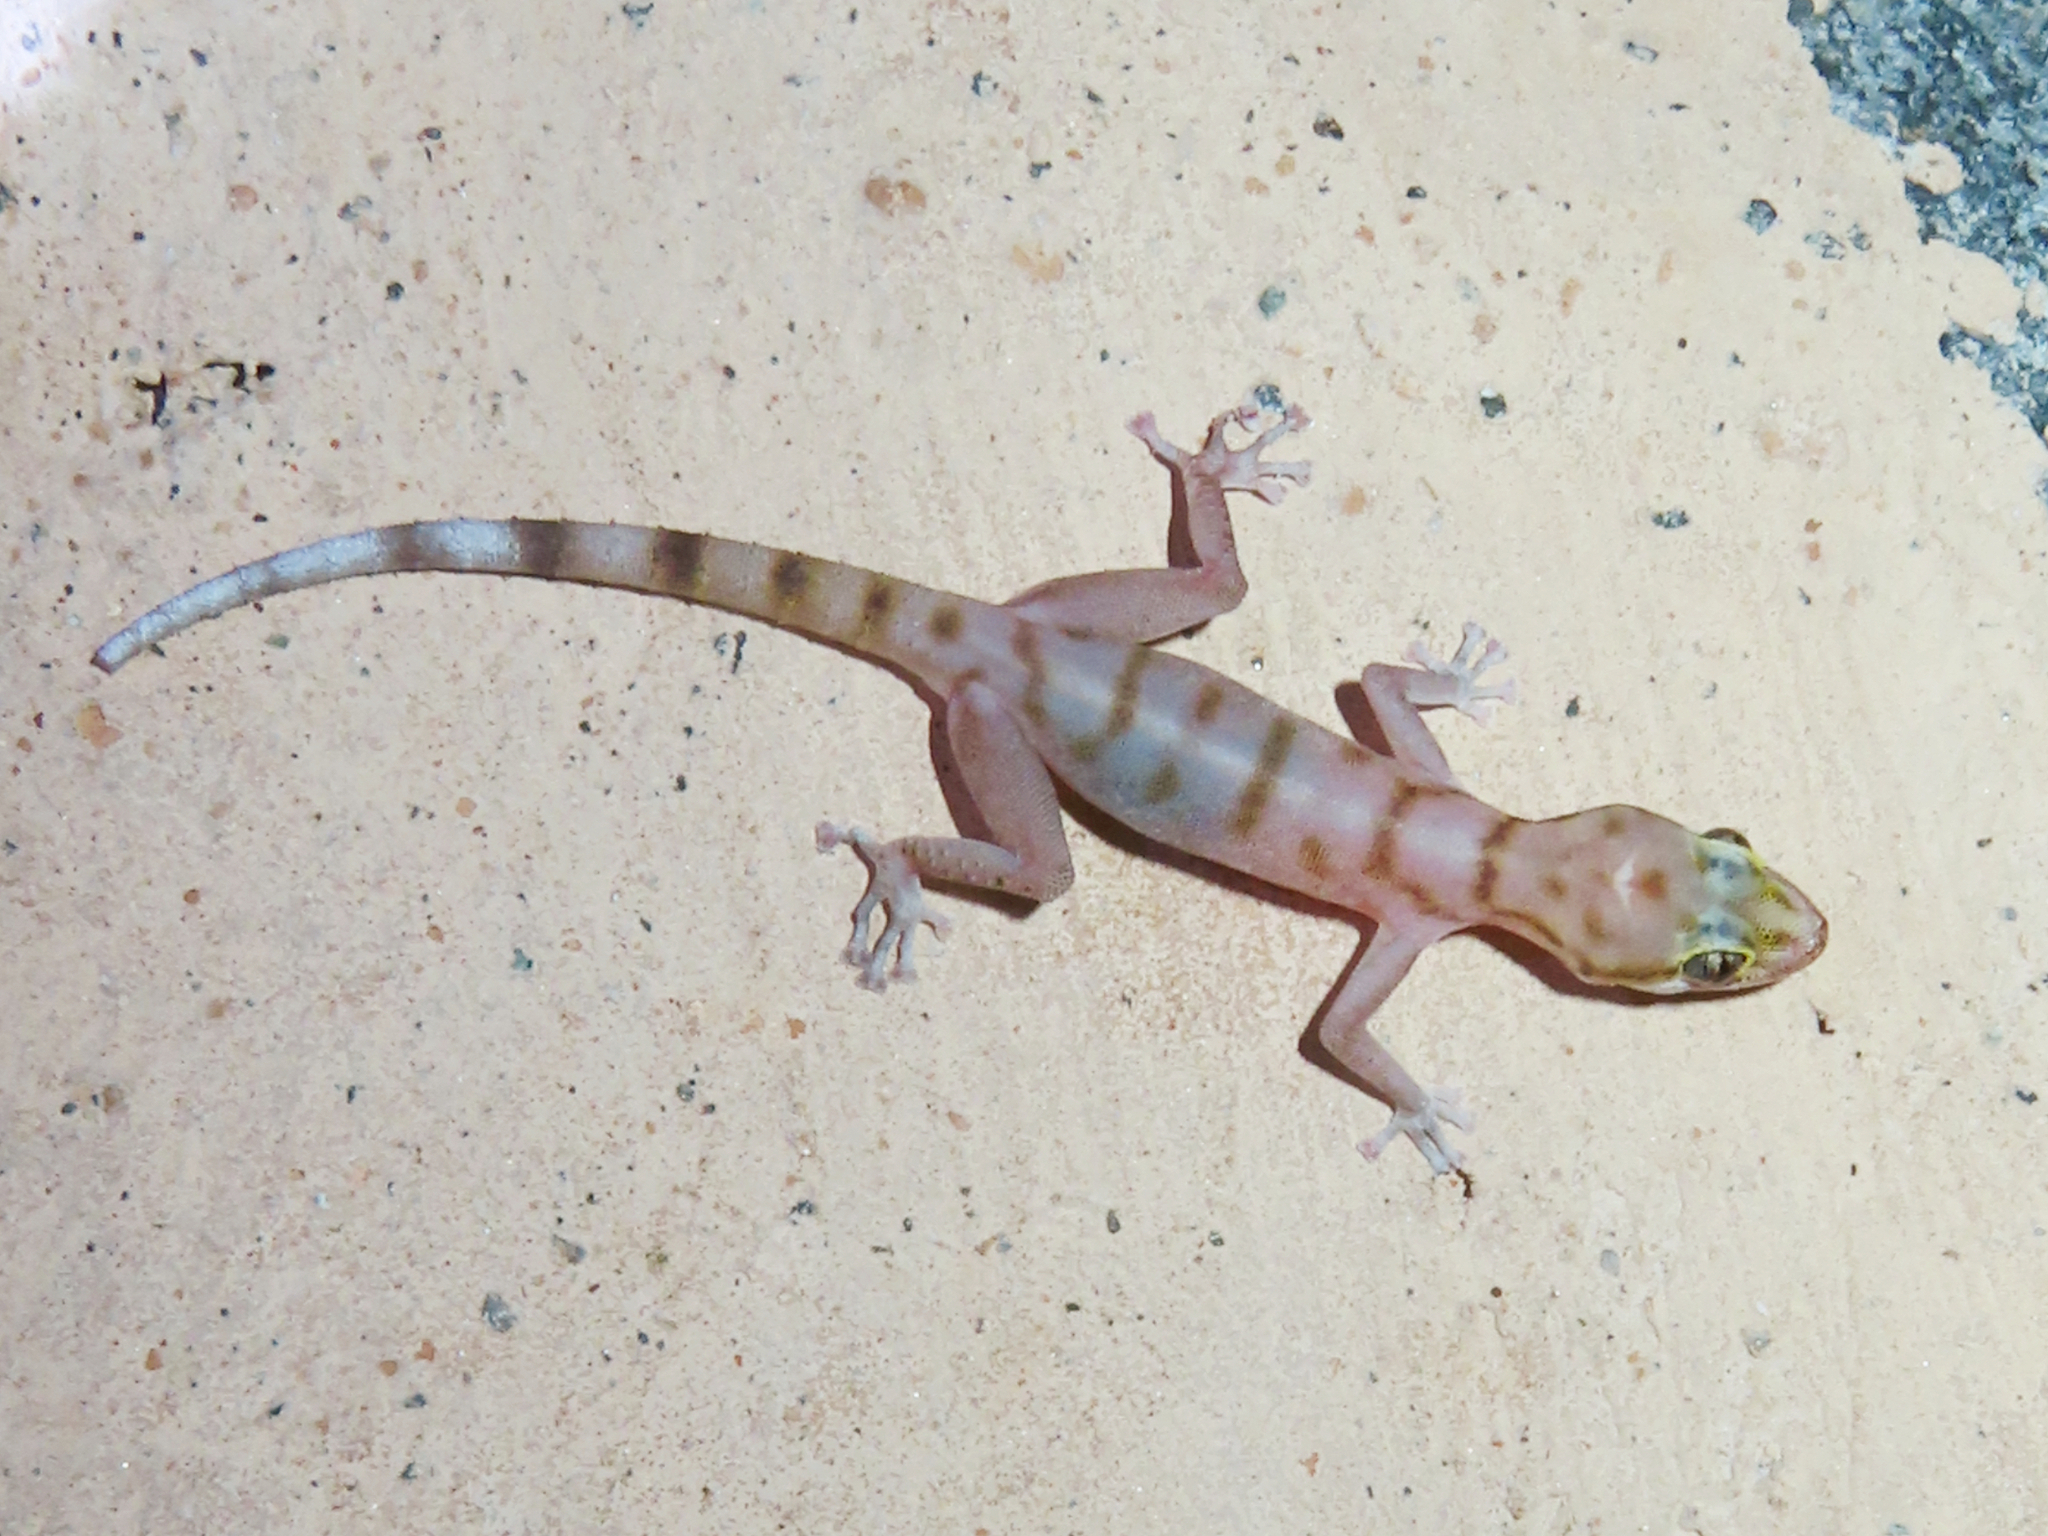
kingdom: Animalia
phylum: Chordata
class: Squamata
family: Phyllodactylidae
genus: Asaccus
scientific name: Asaccus gallagheri
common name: Gallagher's gecko
